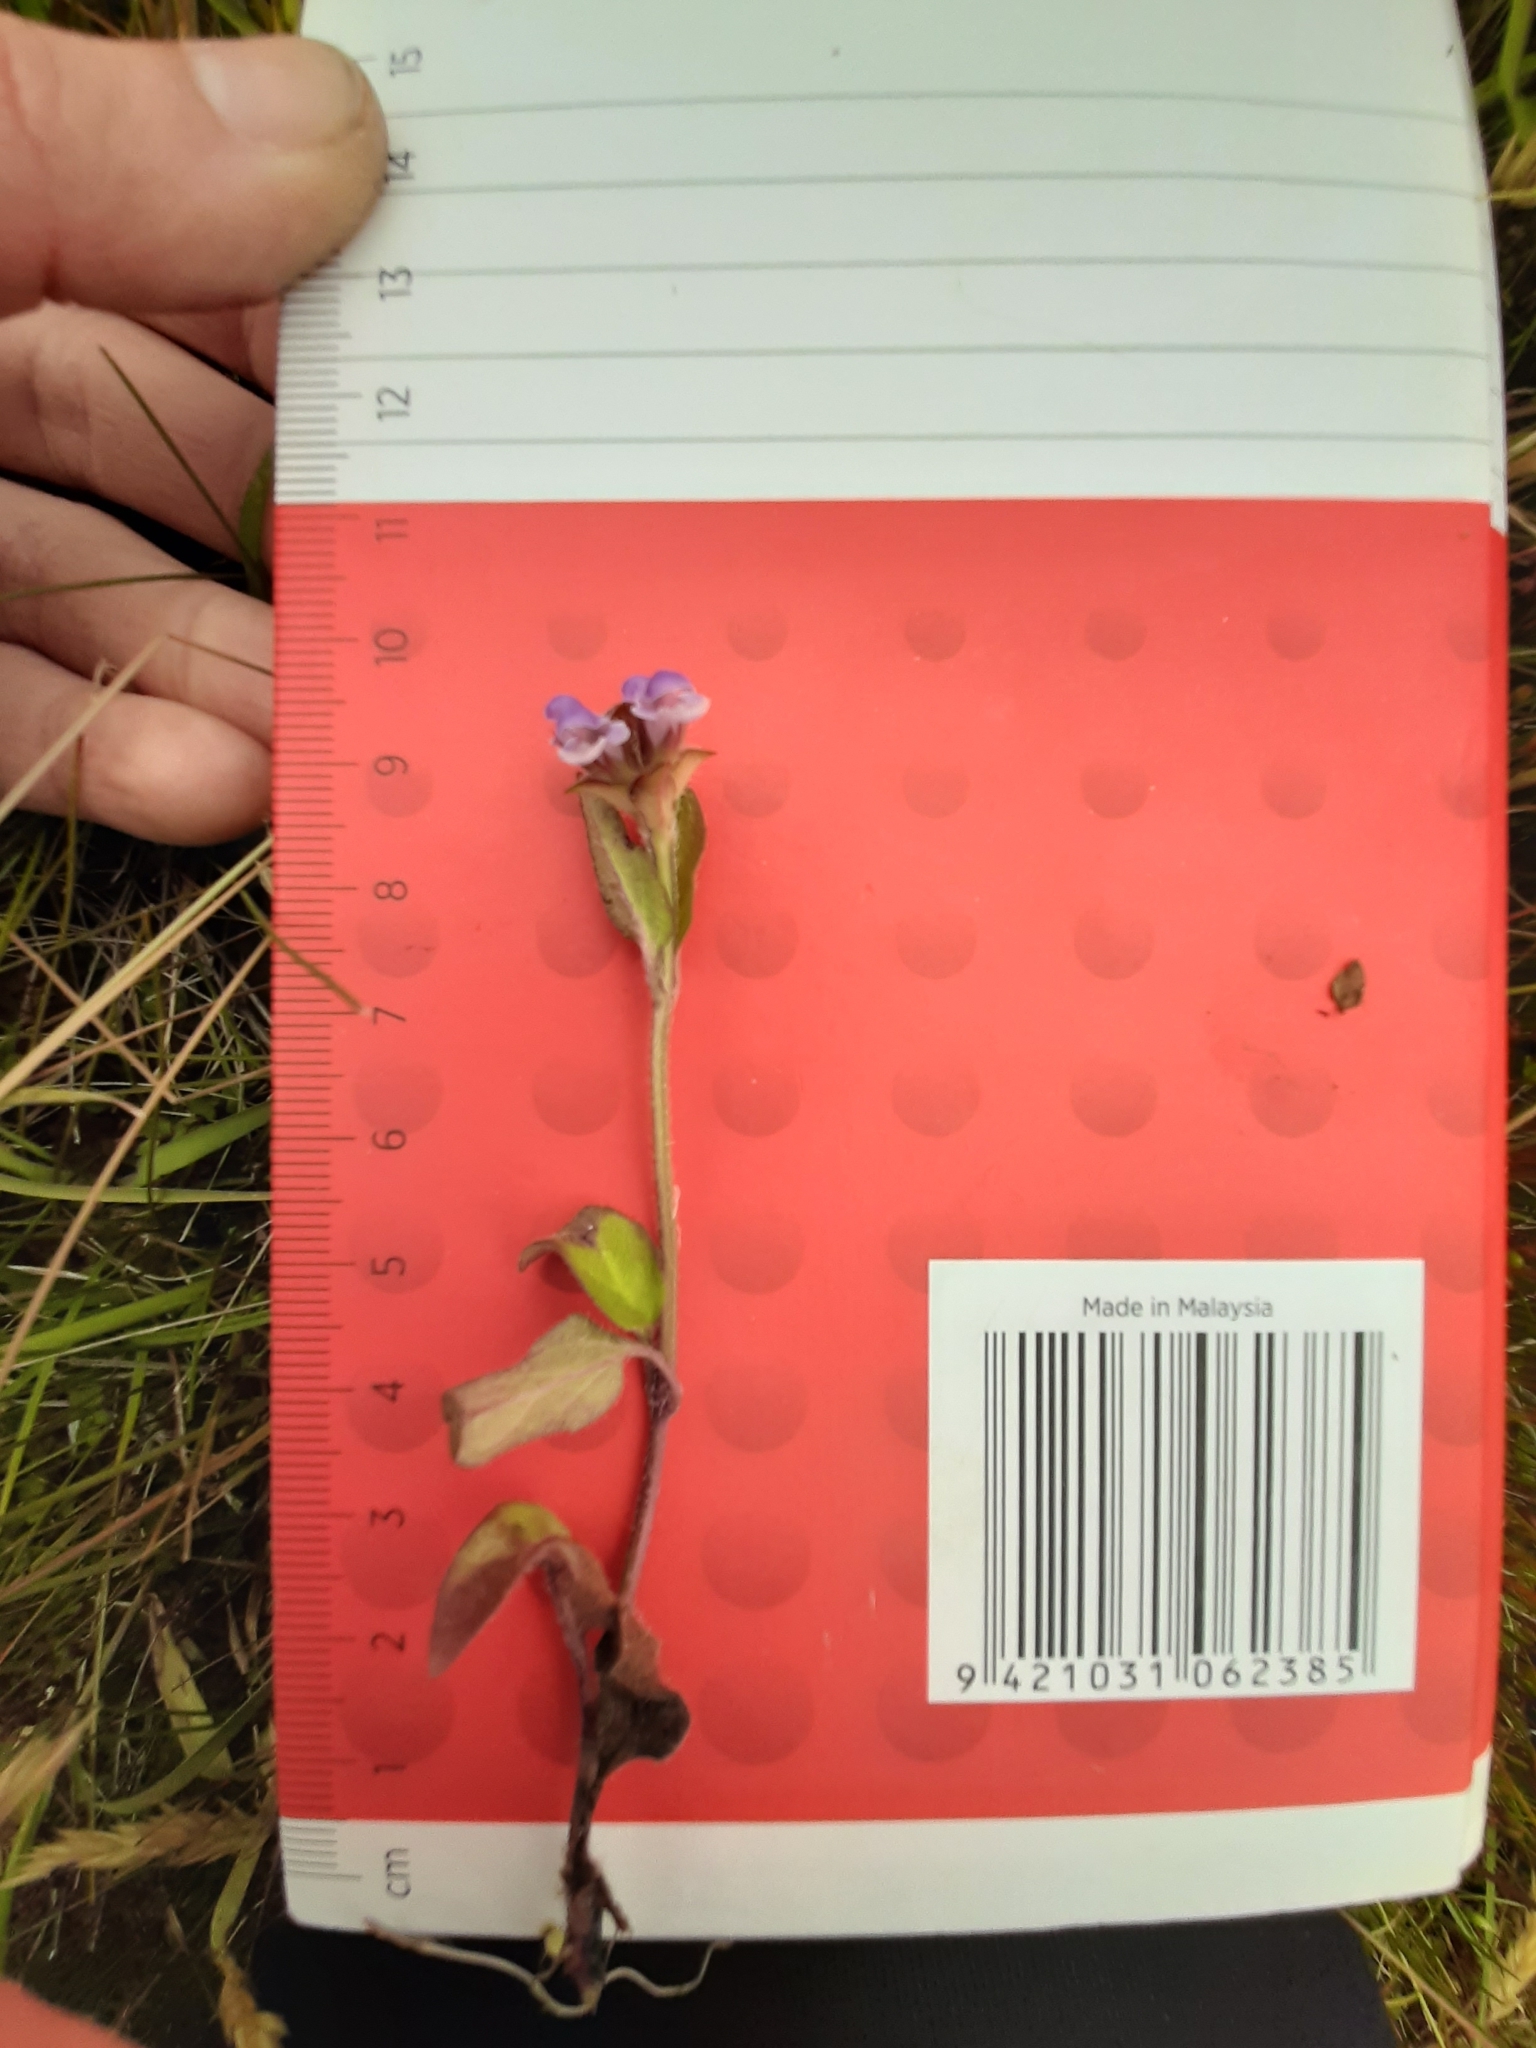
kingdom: Plantae
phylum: Tracheophyta
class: Magnoliopsida
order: Lamiales
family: Lamiaceae
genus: Prunella
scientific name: Prunella vulgaris
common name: Heal-all
